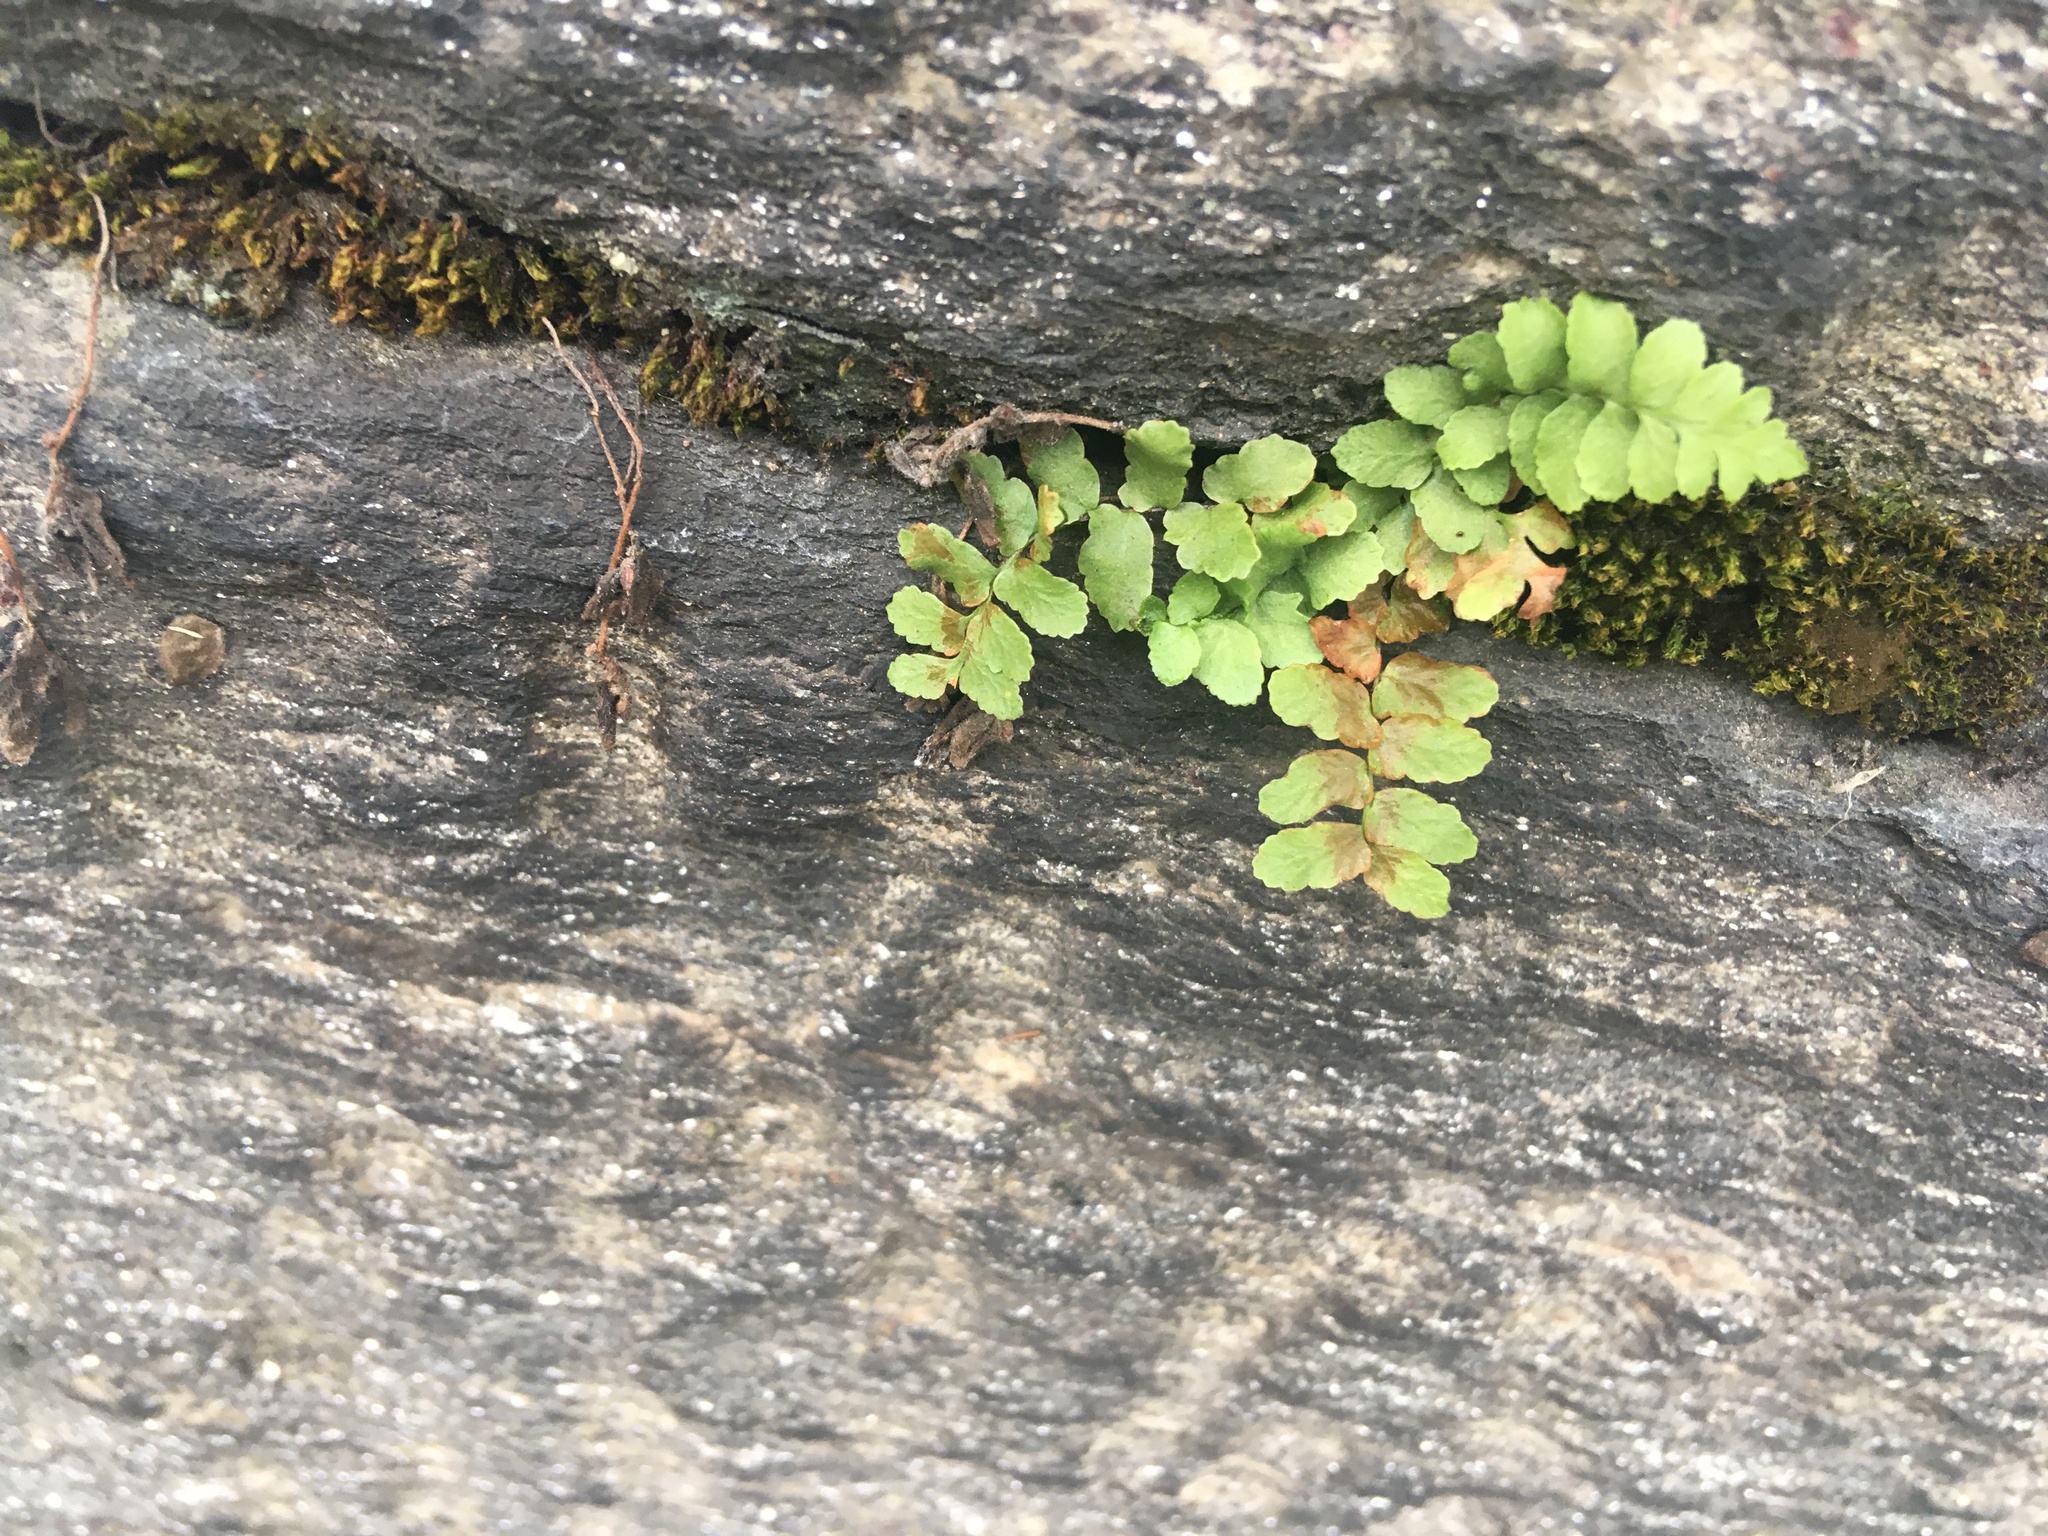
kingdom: Plantae
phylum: Tracheophyta
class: Polypodiopsida
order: Polypodiales
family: Aspleniaceae
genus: Asplenium
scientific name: Asplenium platyneuron
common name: Ebony spleenwort
